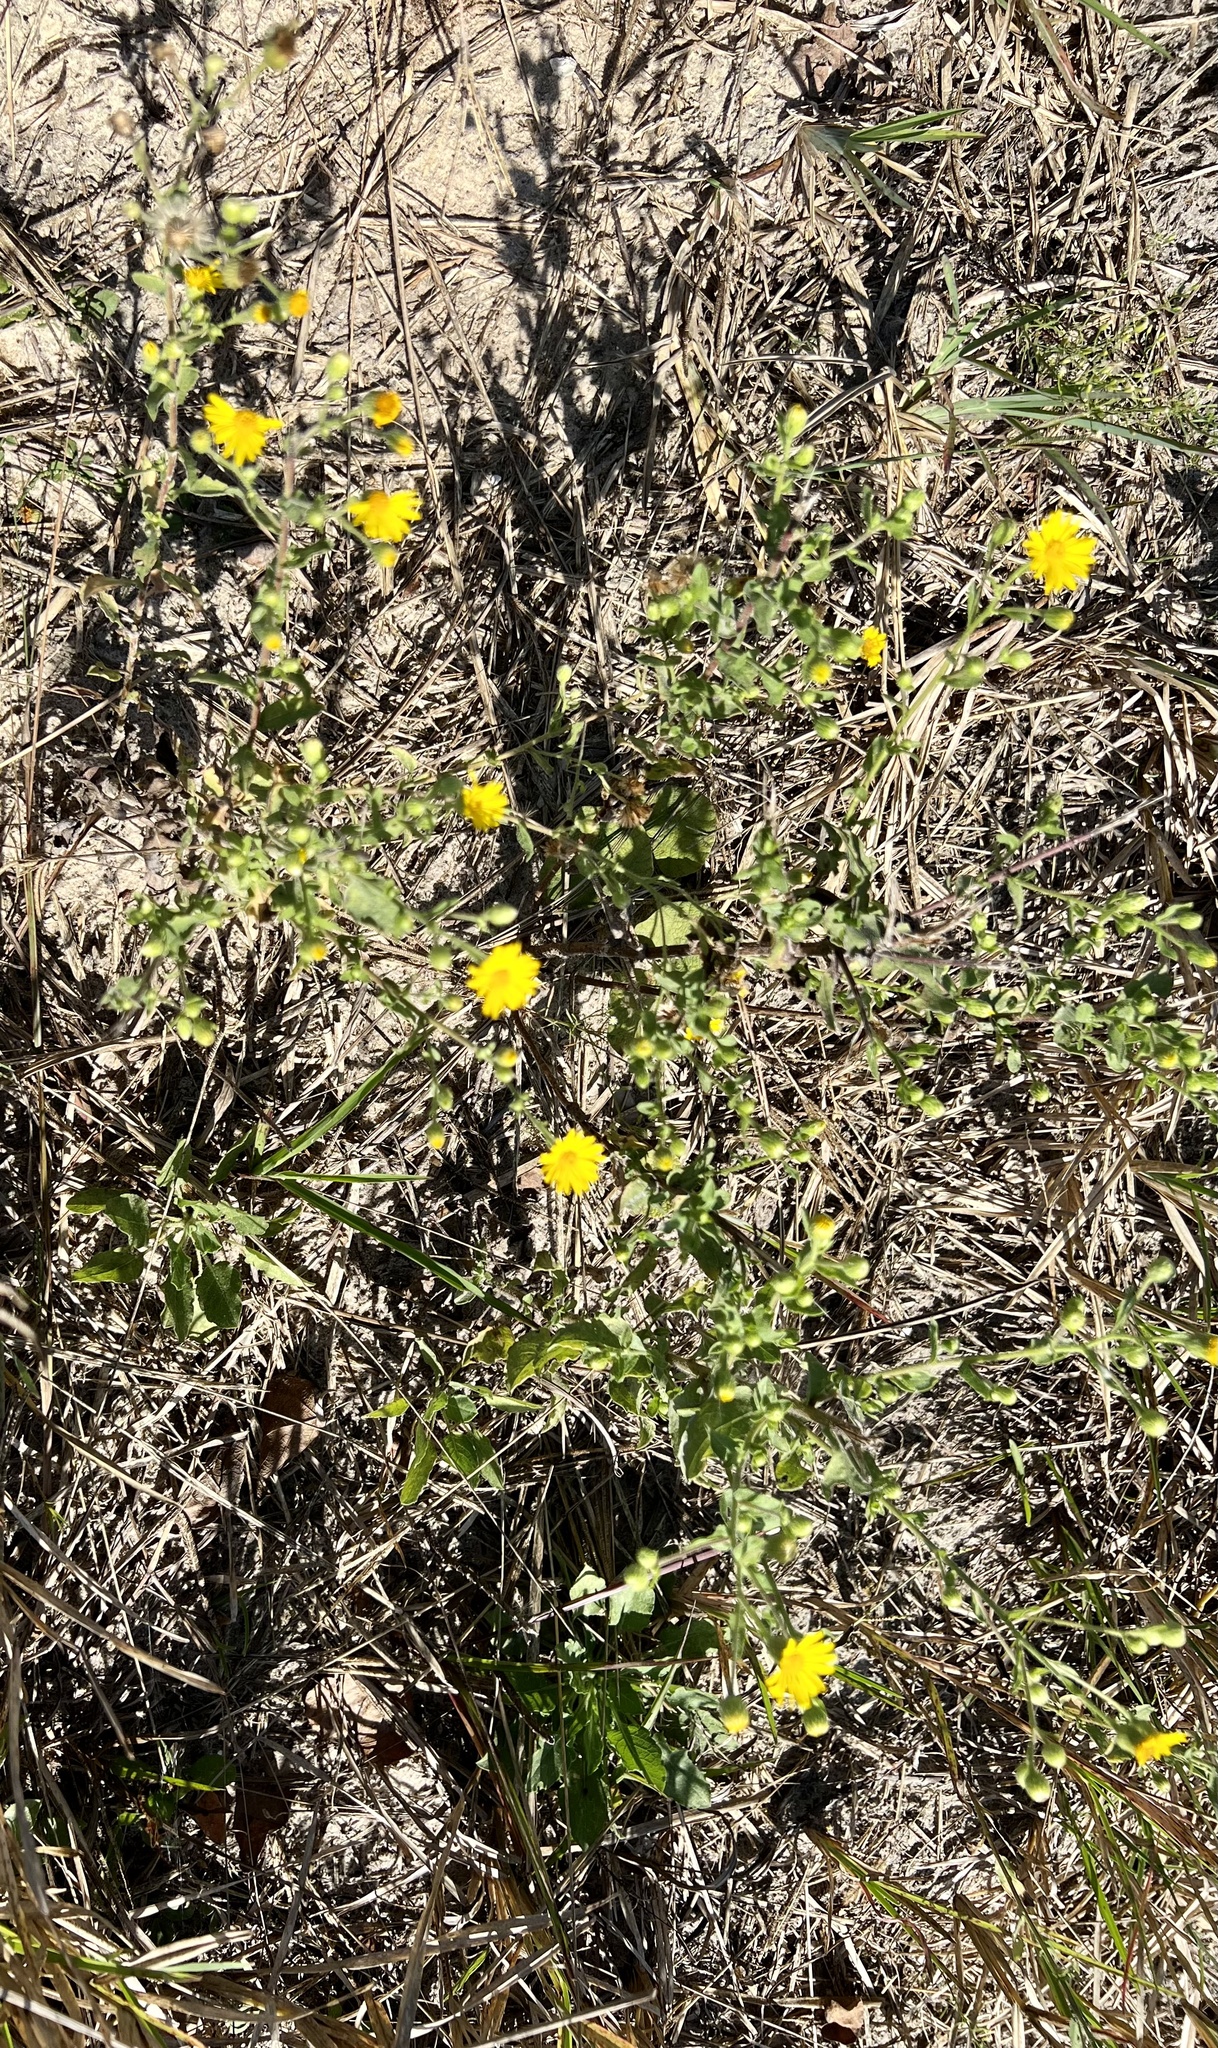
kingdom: Plantae
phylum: Tracheophyta
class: Magnoliopsida
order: Asterales
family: Asteraceae
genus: Heterotheca
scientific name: Heterotheca subaxillaris
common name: Camphorweed
